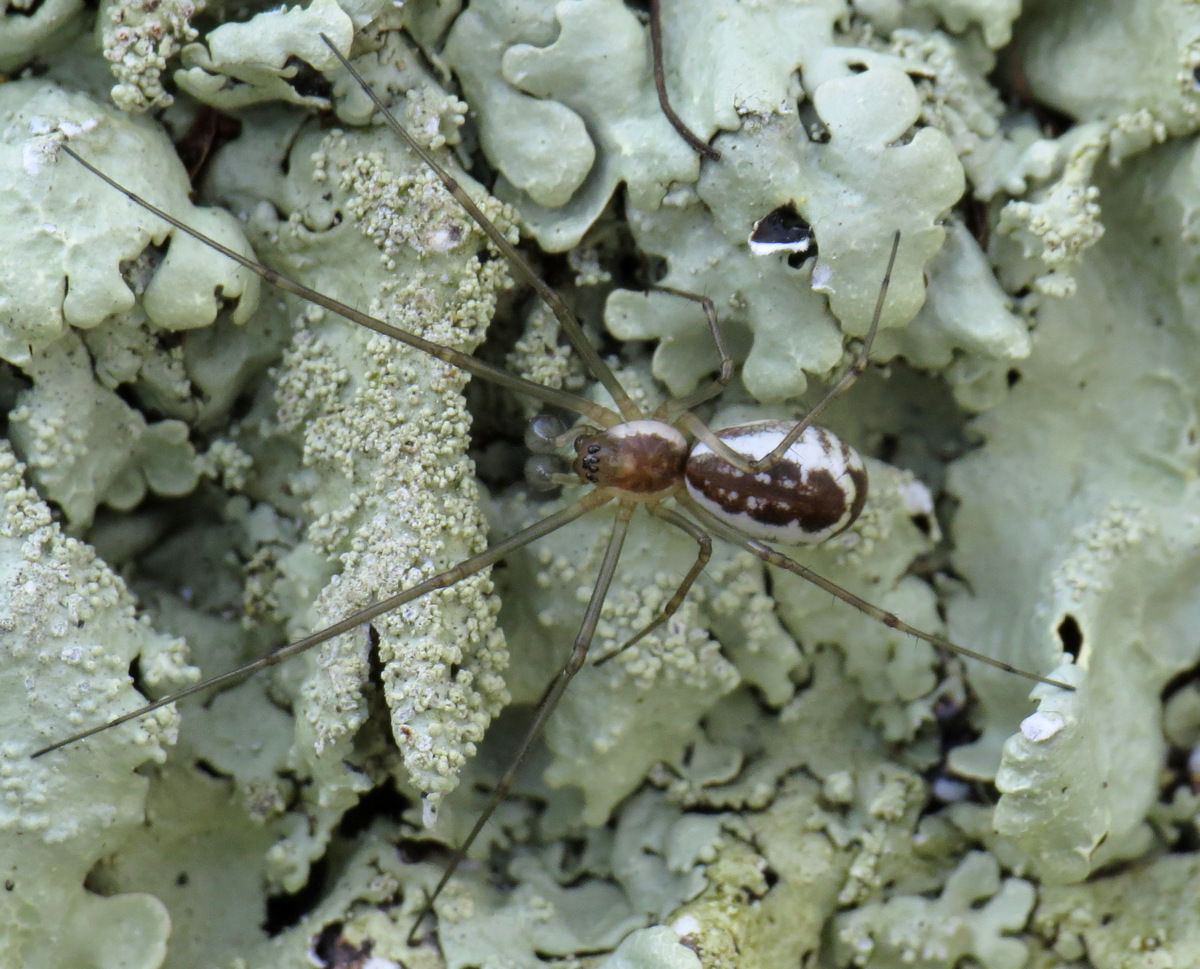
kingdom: Animalia
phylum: Arthropoda
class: Arachnida
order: Araneae
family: Linyphiidae
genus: Neriene
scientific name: Neriene radiata
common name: Filmy dome spider
